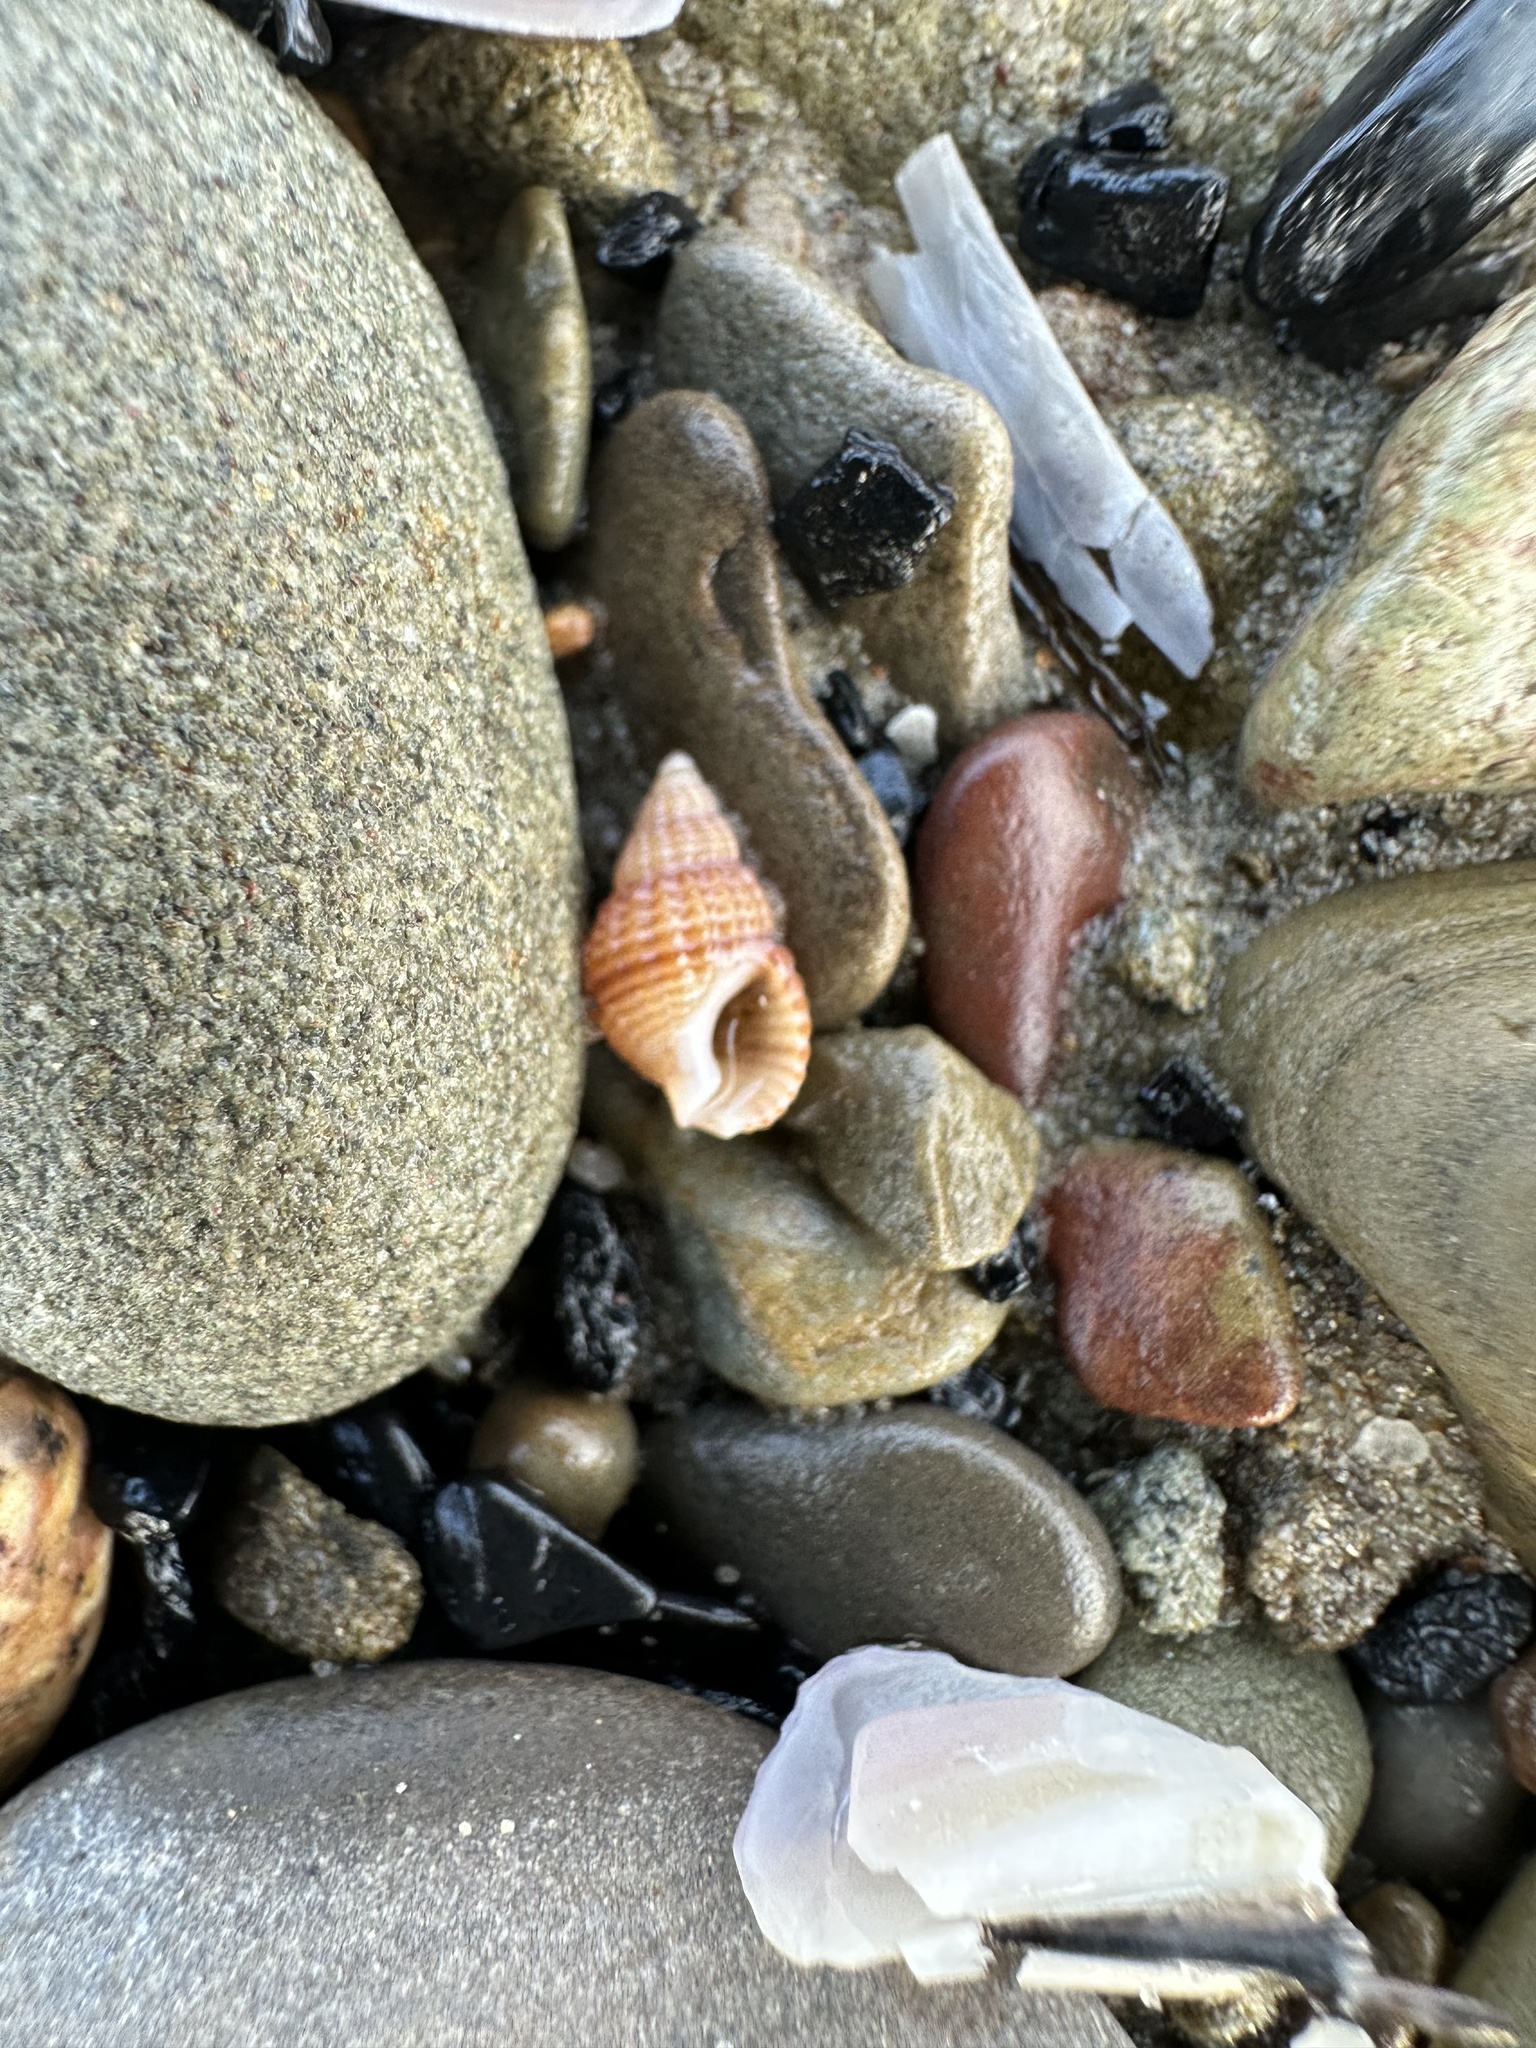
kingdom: Animalia
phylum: Mollusca
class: Gastropoda
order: Neogastropoda
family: Nassariidae
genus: Ilyanassa
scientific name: Ilyanassa trivittata
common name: Three-line mudsnail
